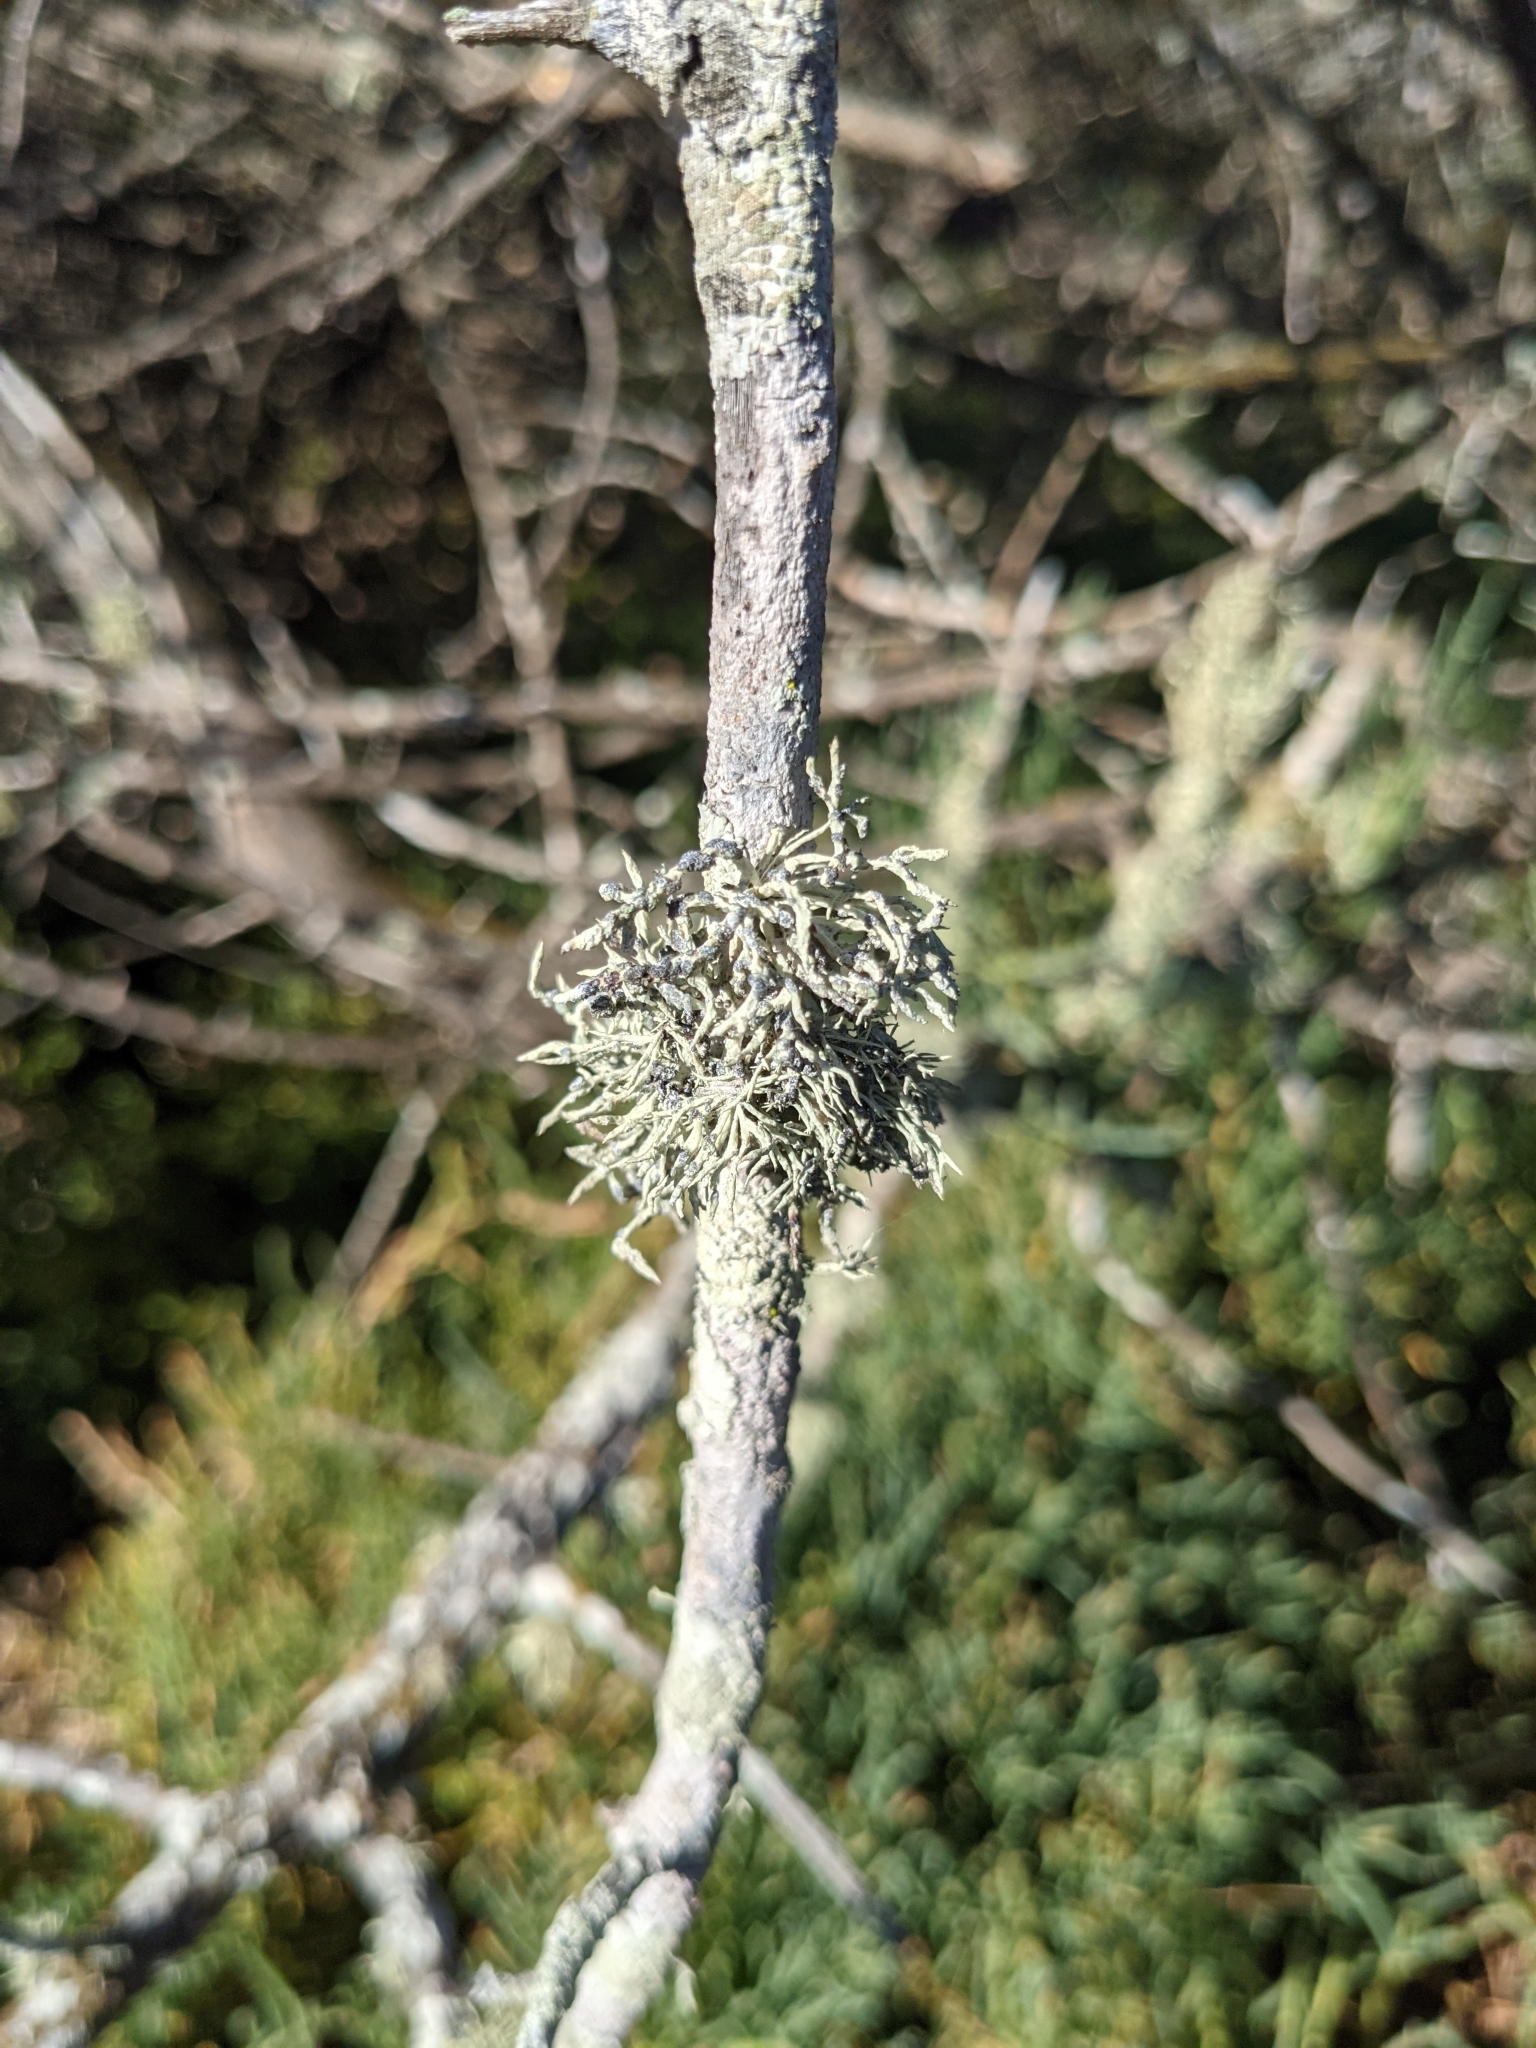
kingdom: Fungi
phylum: Ascomycota
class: Lecanoromycetes
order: Lecanorales
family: Ramalinaceae
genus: Niebla
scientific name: Niebla cephalota
